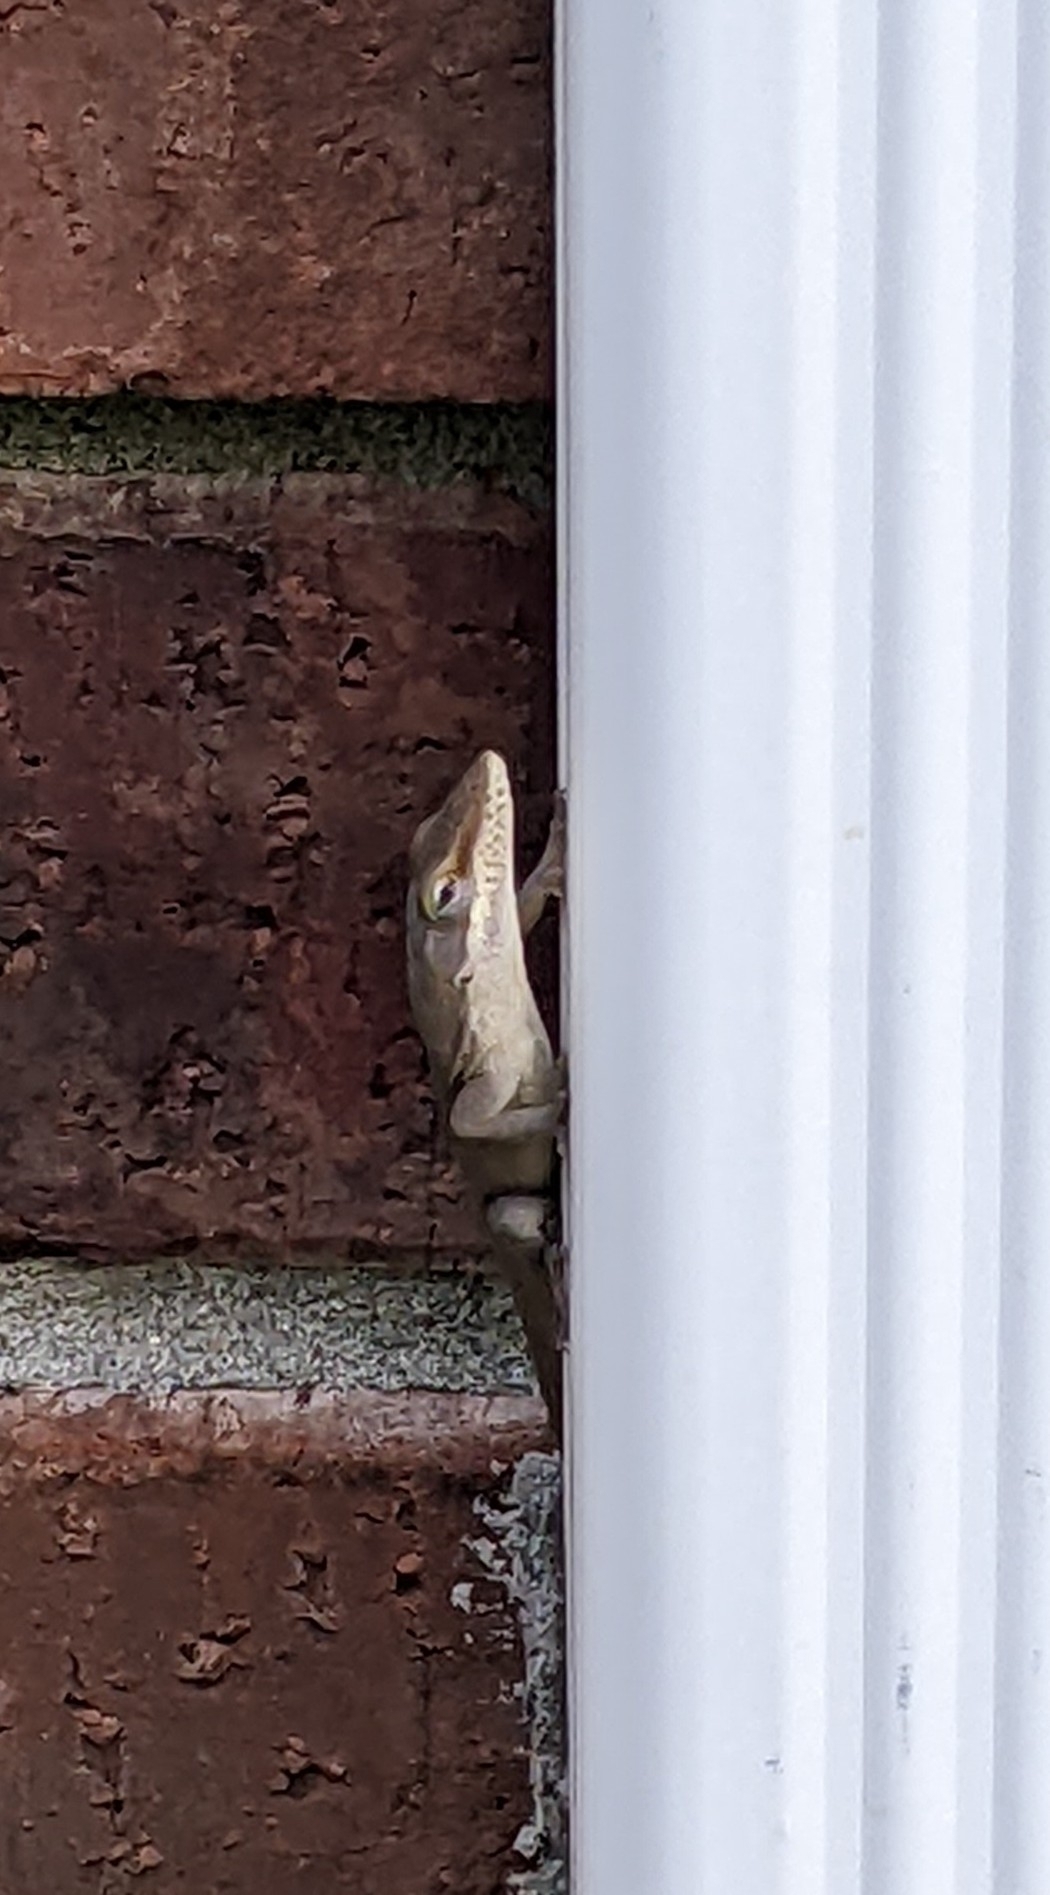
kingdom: Animalia
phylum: Chordata
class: Squamata
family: Dactyloidae
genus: Anolis
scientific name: Anolis carolinensis
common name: Green anole
